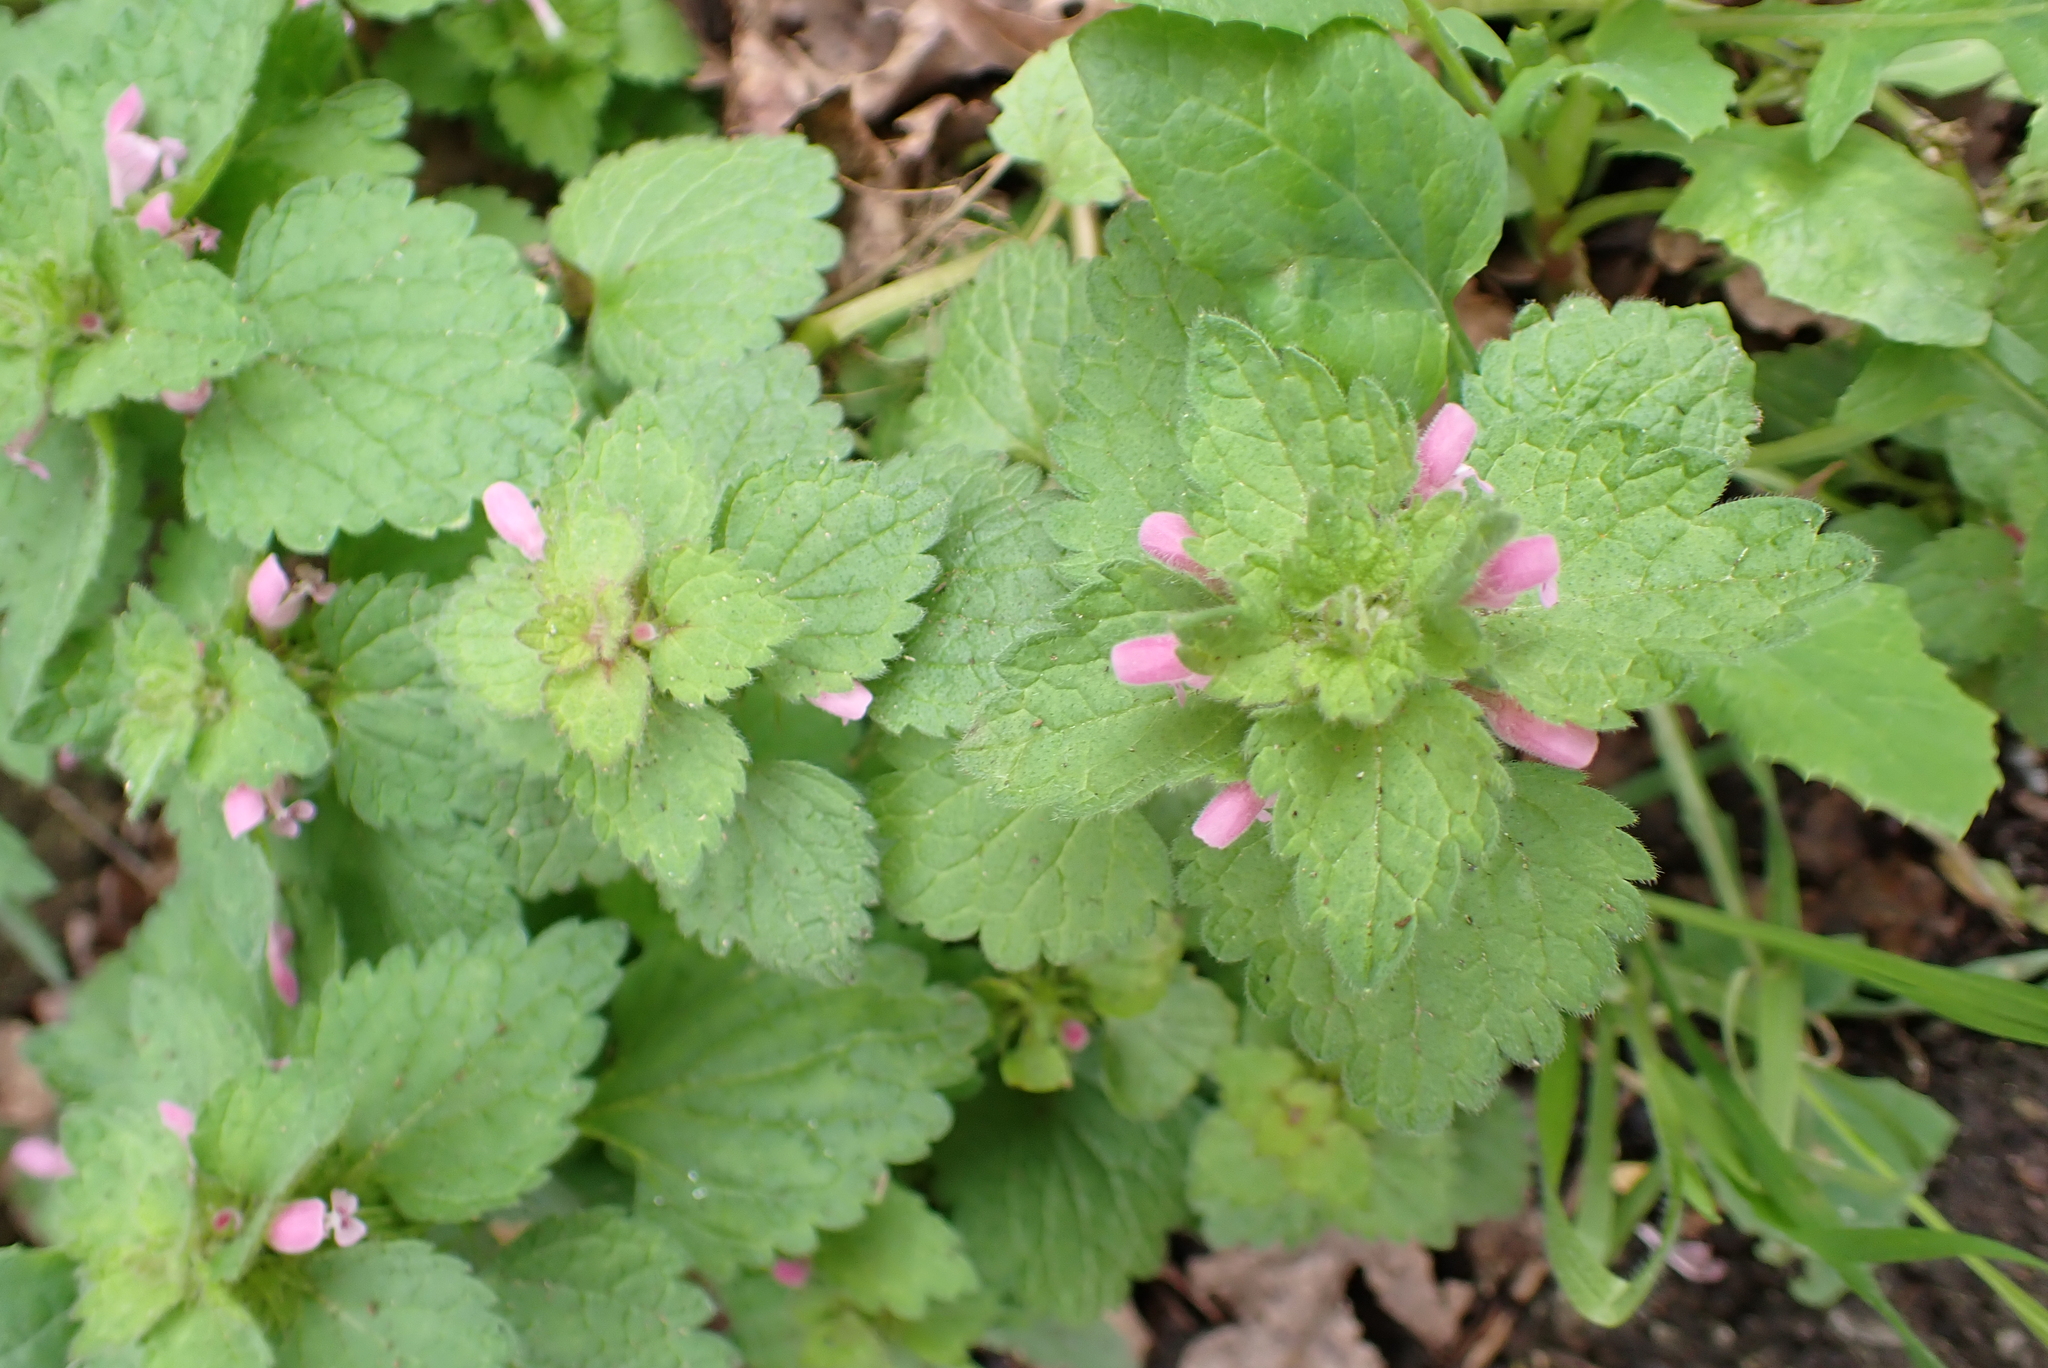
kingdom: Plantae
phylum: Tracheophyta
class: Magnoliopsida
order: Lamiales
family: Lamiaceae
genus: Lamium
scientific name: Lamium purpureum
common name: Red dead-nettle
